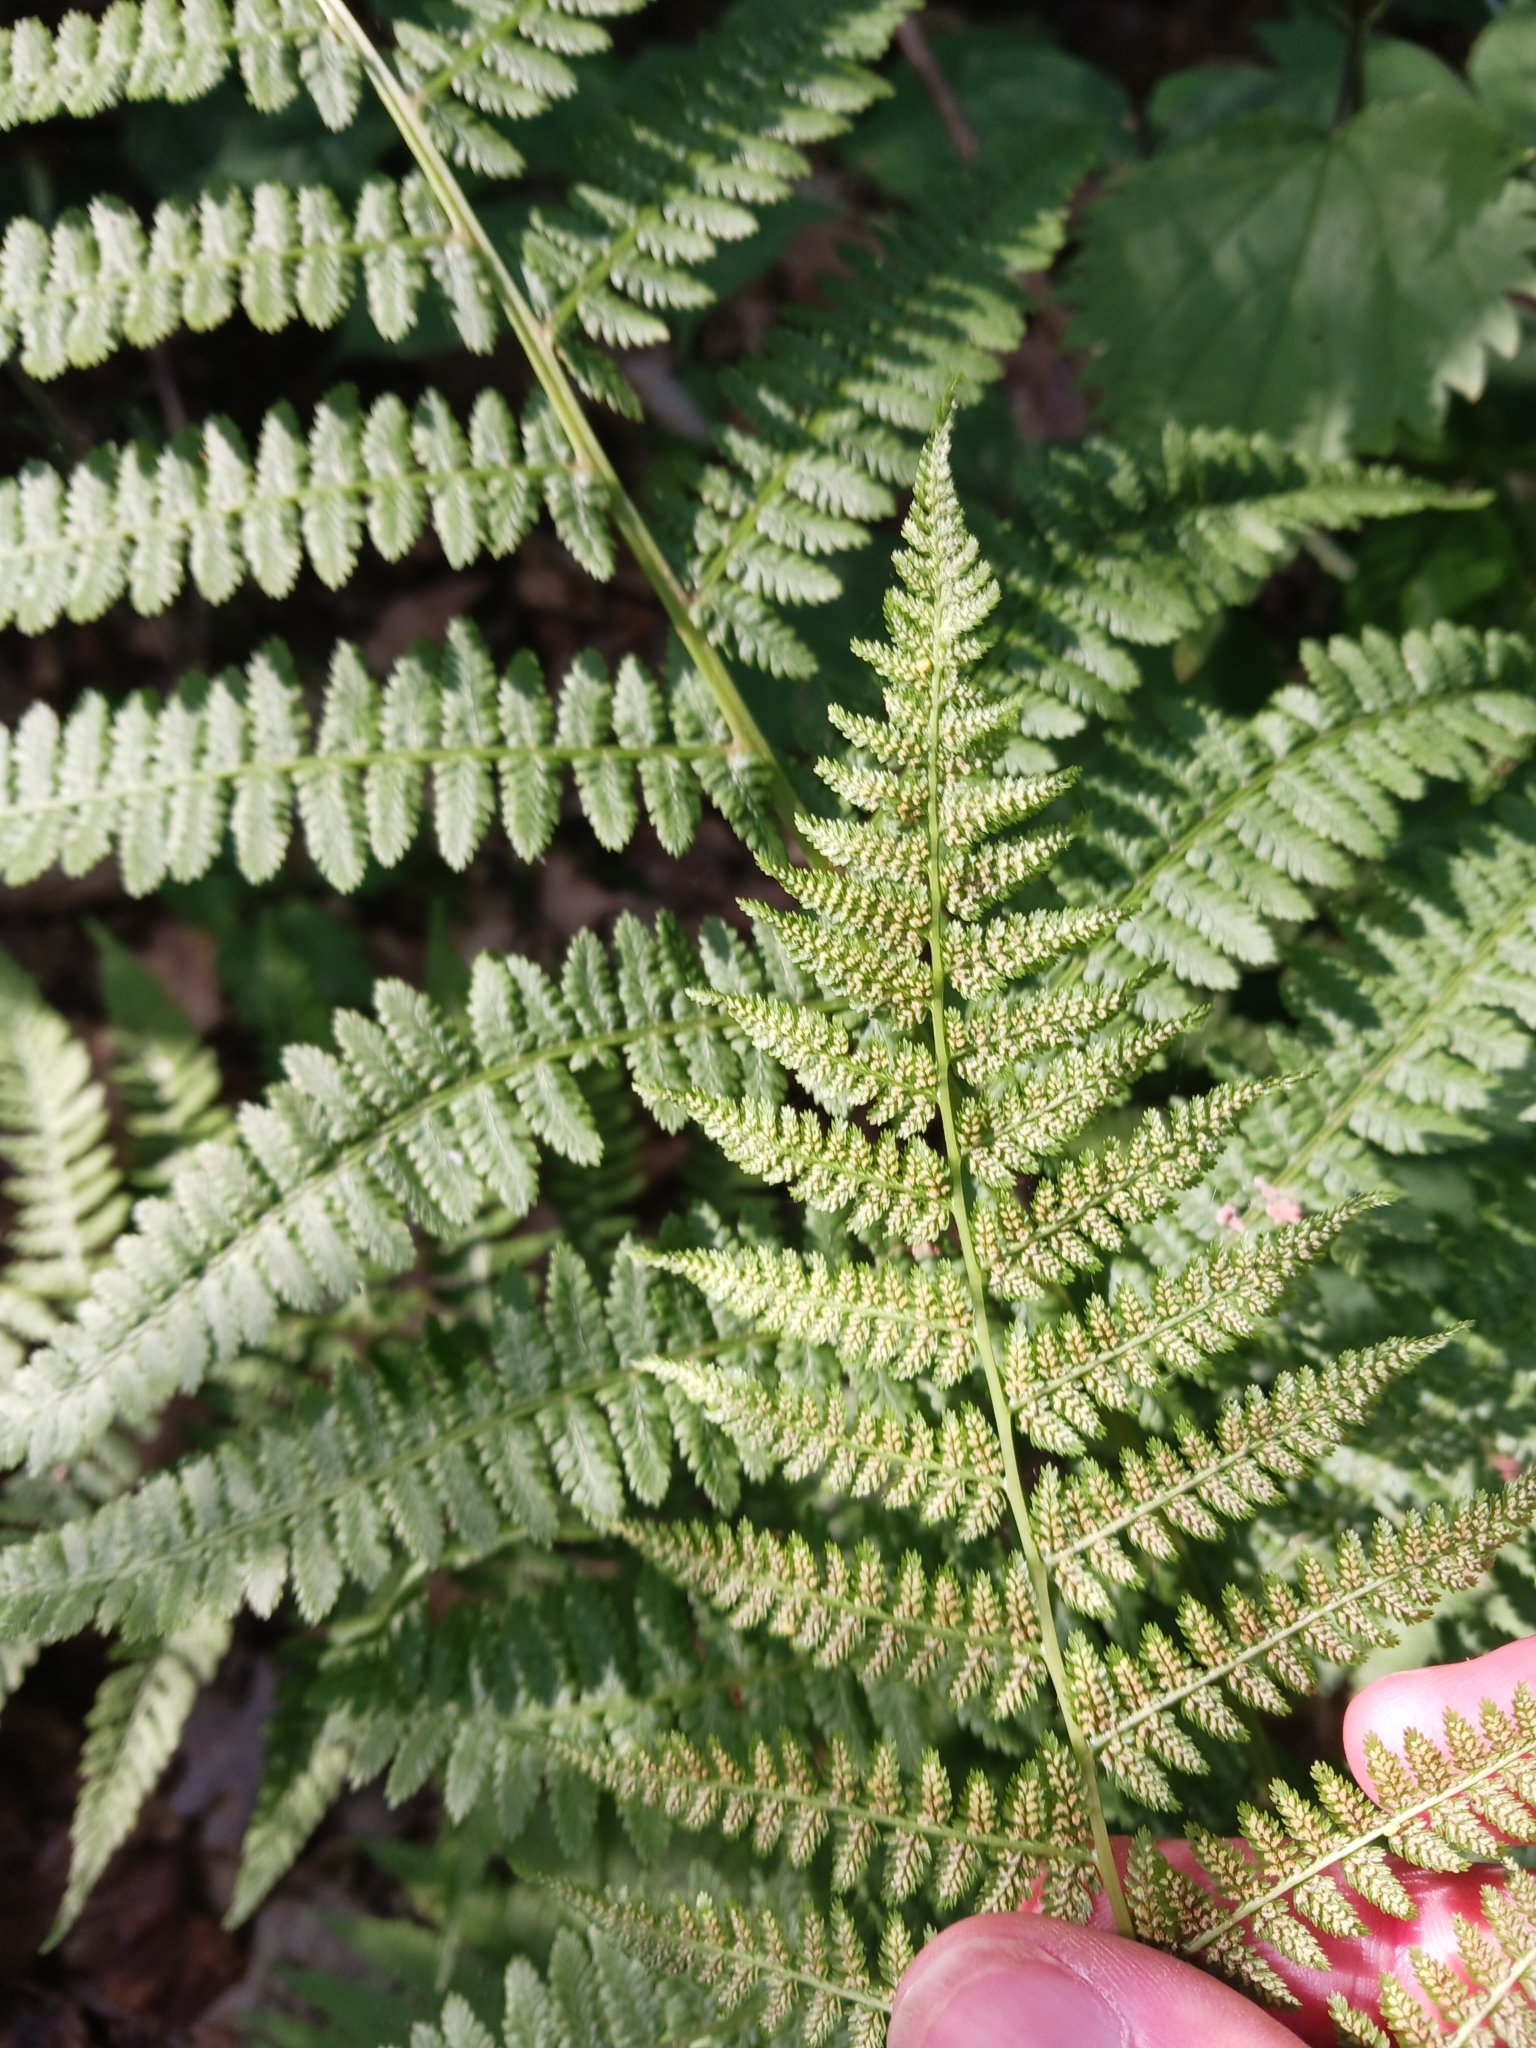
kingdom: Plantae
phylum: Tracheophyta
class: Polypodiopsida
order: Polypodiales
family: Athyriaceae
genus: Athyrium
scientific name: Athyrium filix-femina
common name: Lady fern
